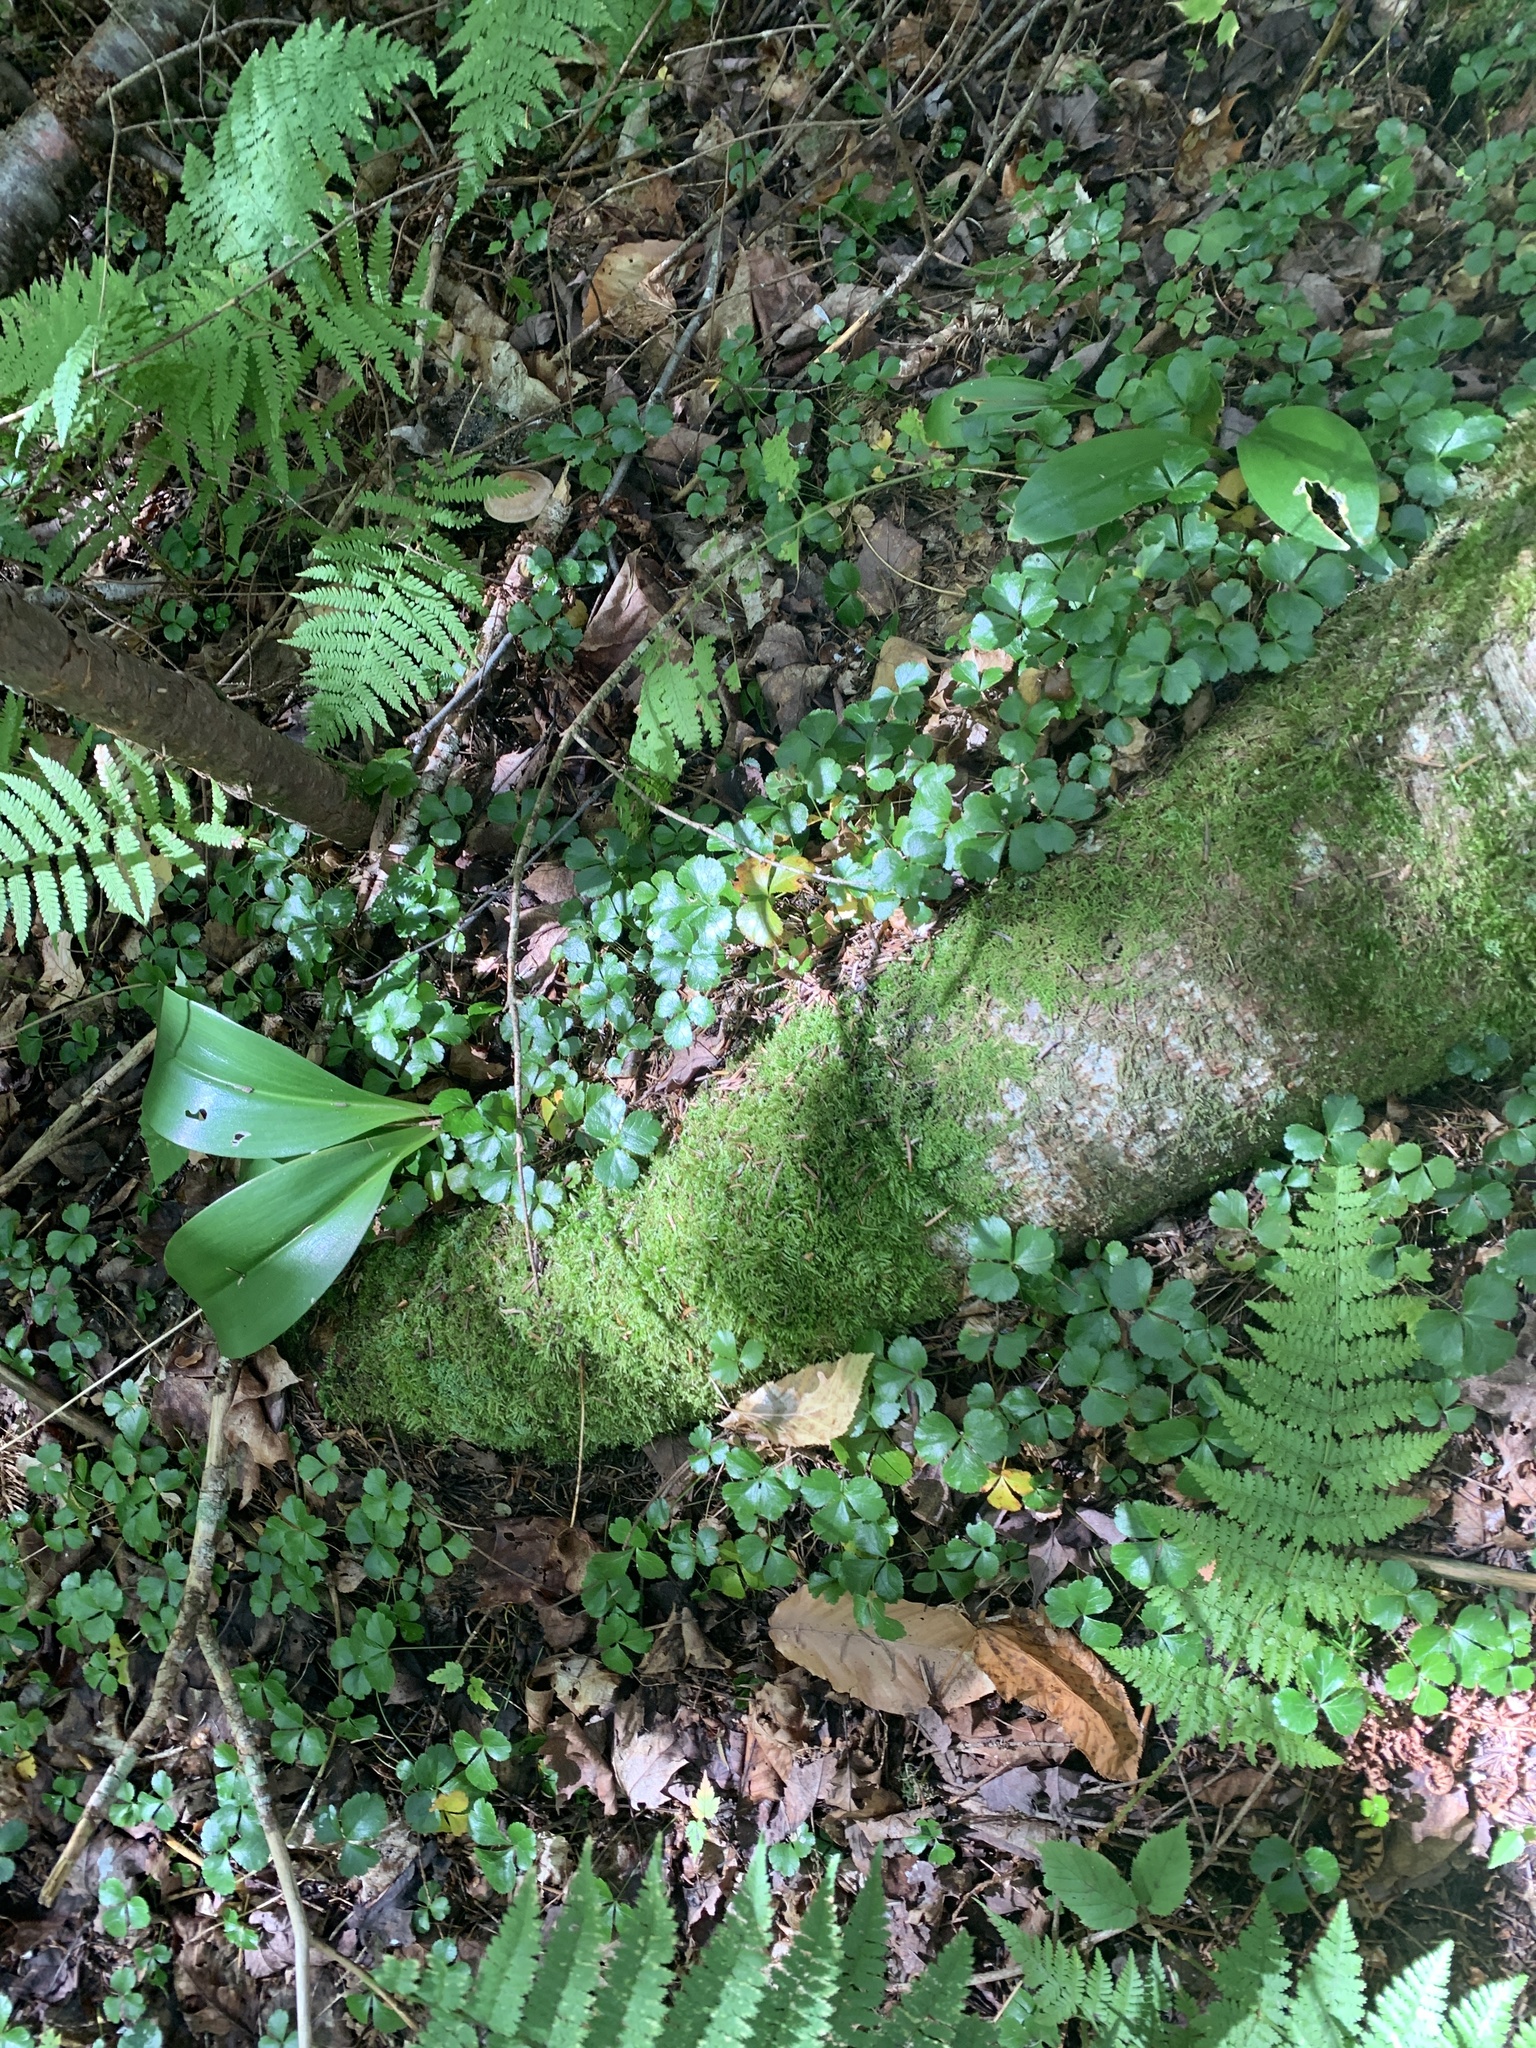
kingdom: Plantae
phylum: Tracheophyta
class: Magnoliopsida
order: Ranunculales
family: Ranunculaceae
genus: Coptis
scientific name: Coptis trifolia
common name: Canker-root
